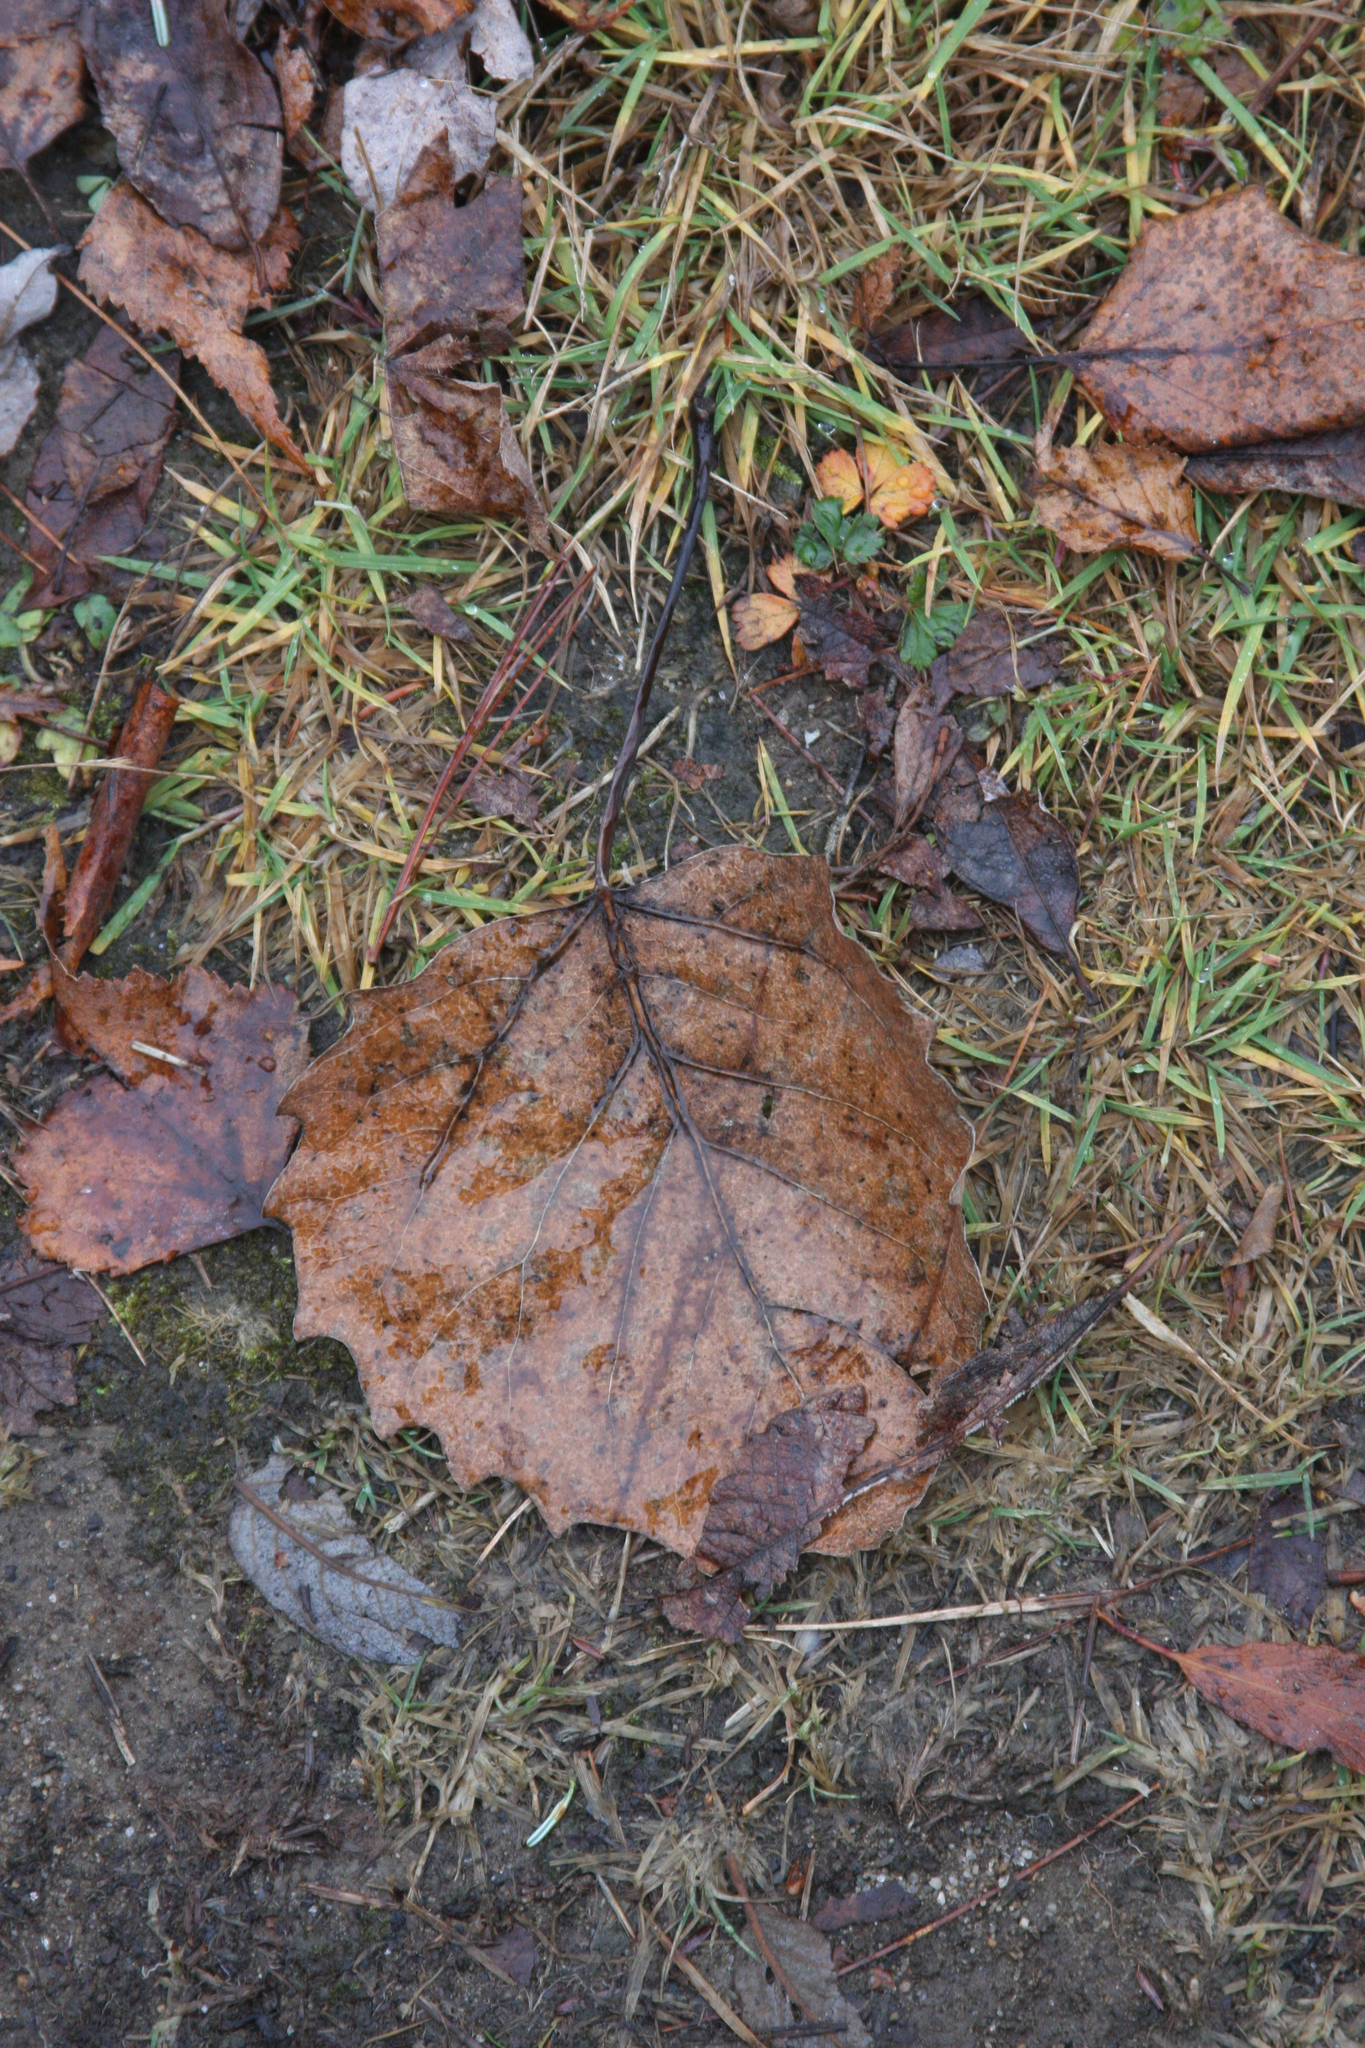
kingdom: Plantae
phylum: Tracheophyta
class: Magnoliopsida
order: Malpighiales
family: Salicaceae
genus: Populus
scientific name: Populus grandidentata
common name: Bigtooth aspen
